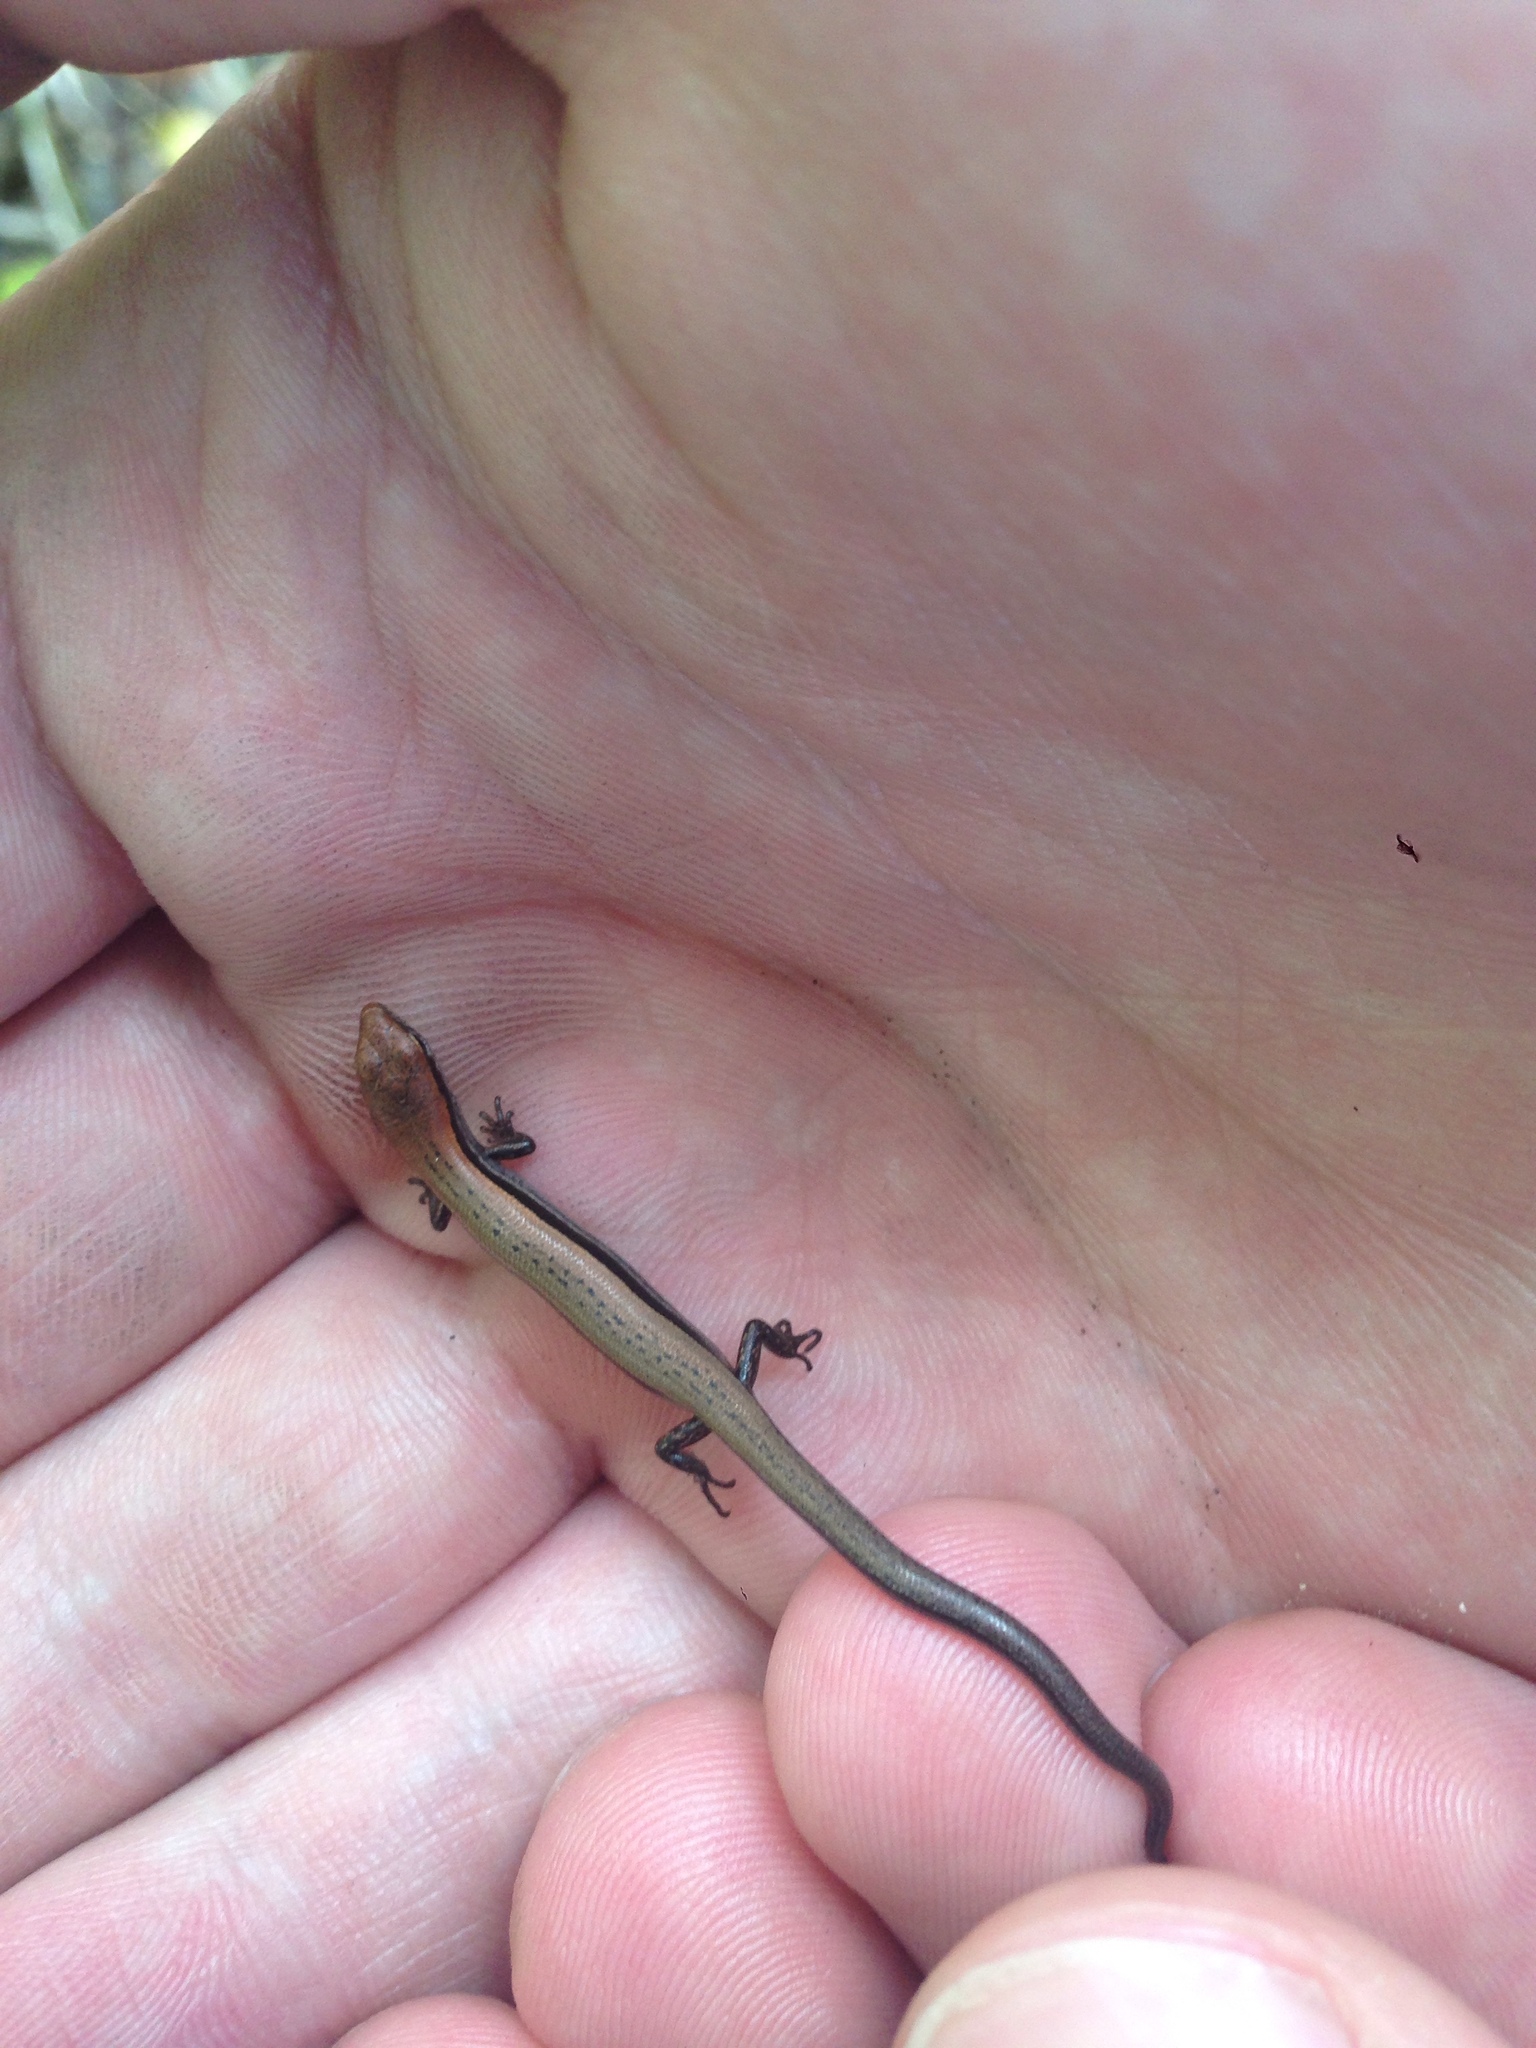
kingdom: Animalia
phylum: Chordata
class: Squamata
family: Scincidae
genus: Scincella
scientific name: Scincella lateralis
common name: Ground skink
